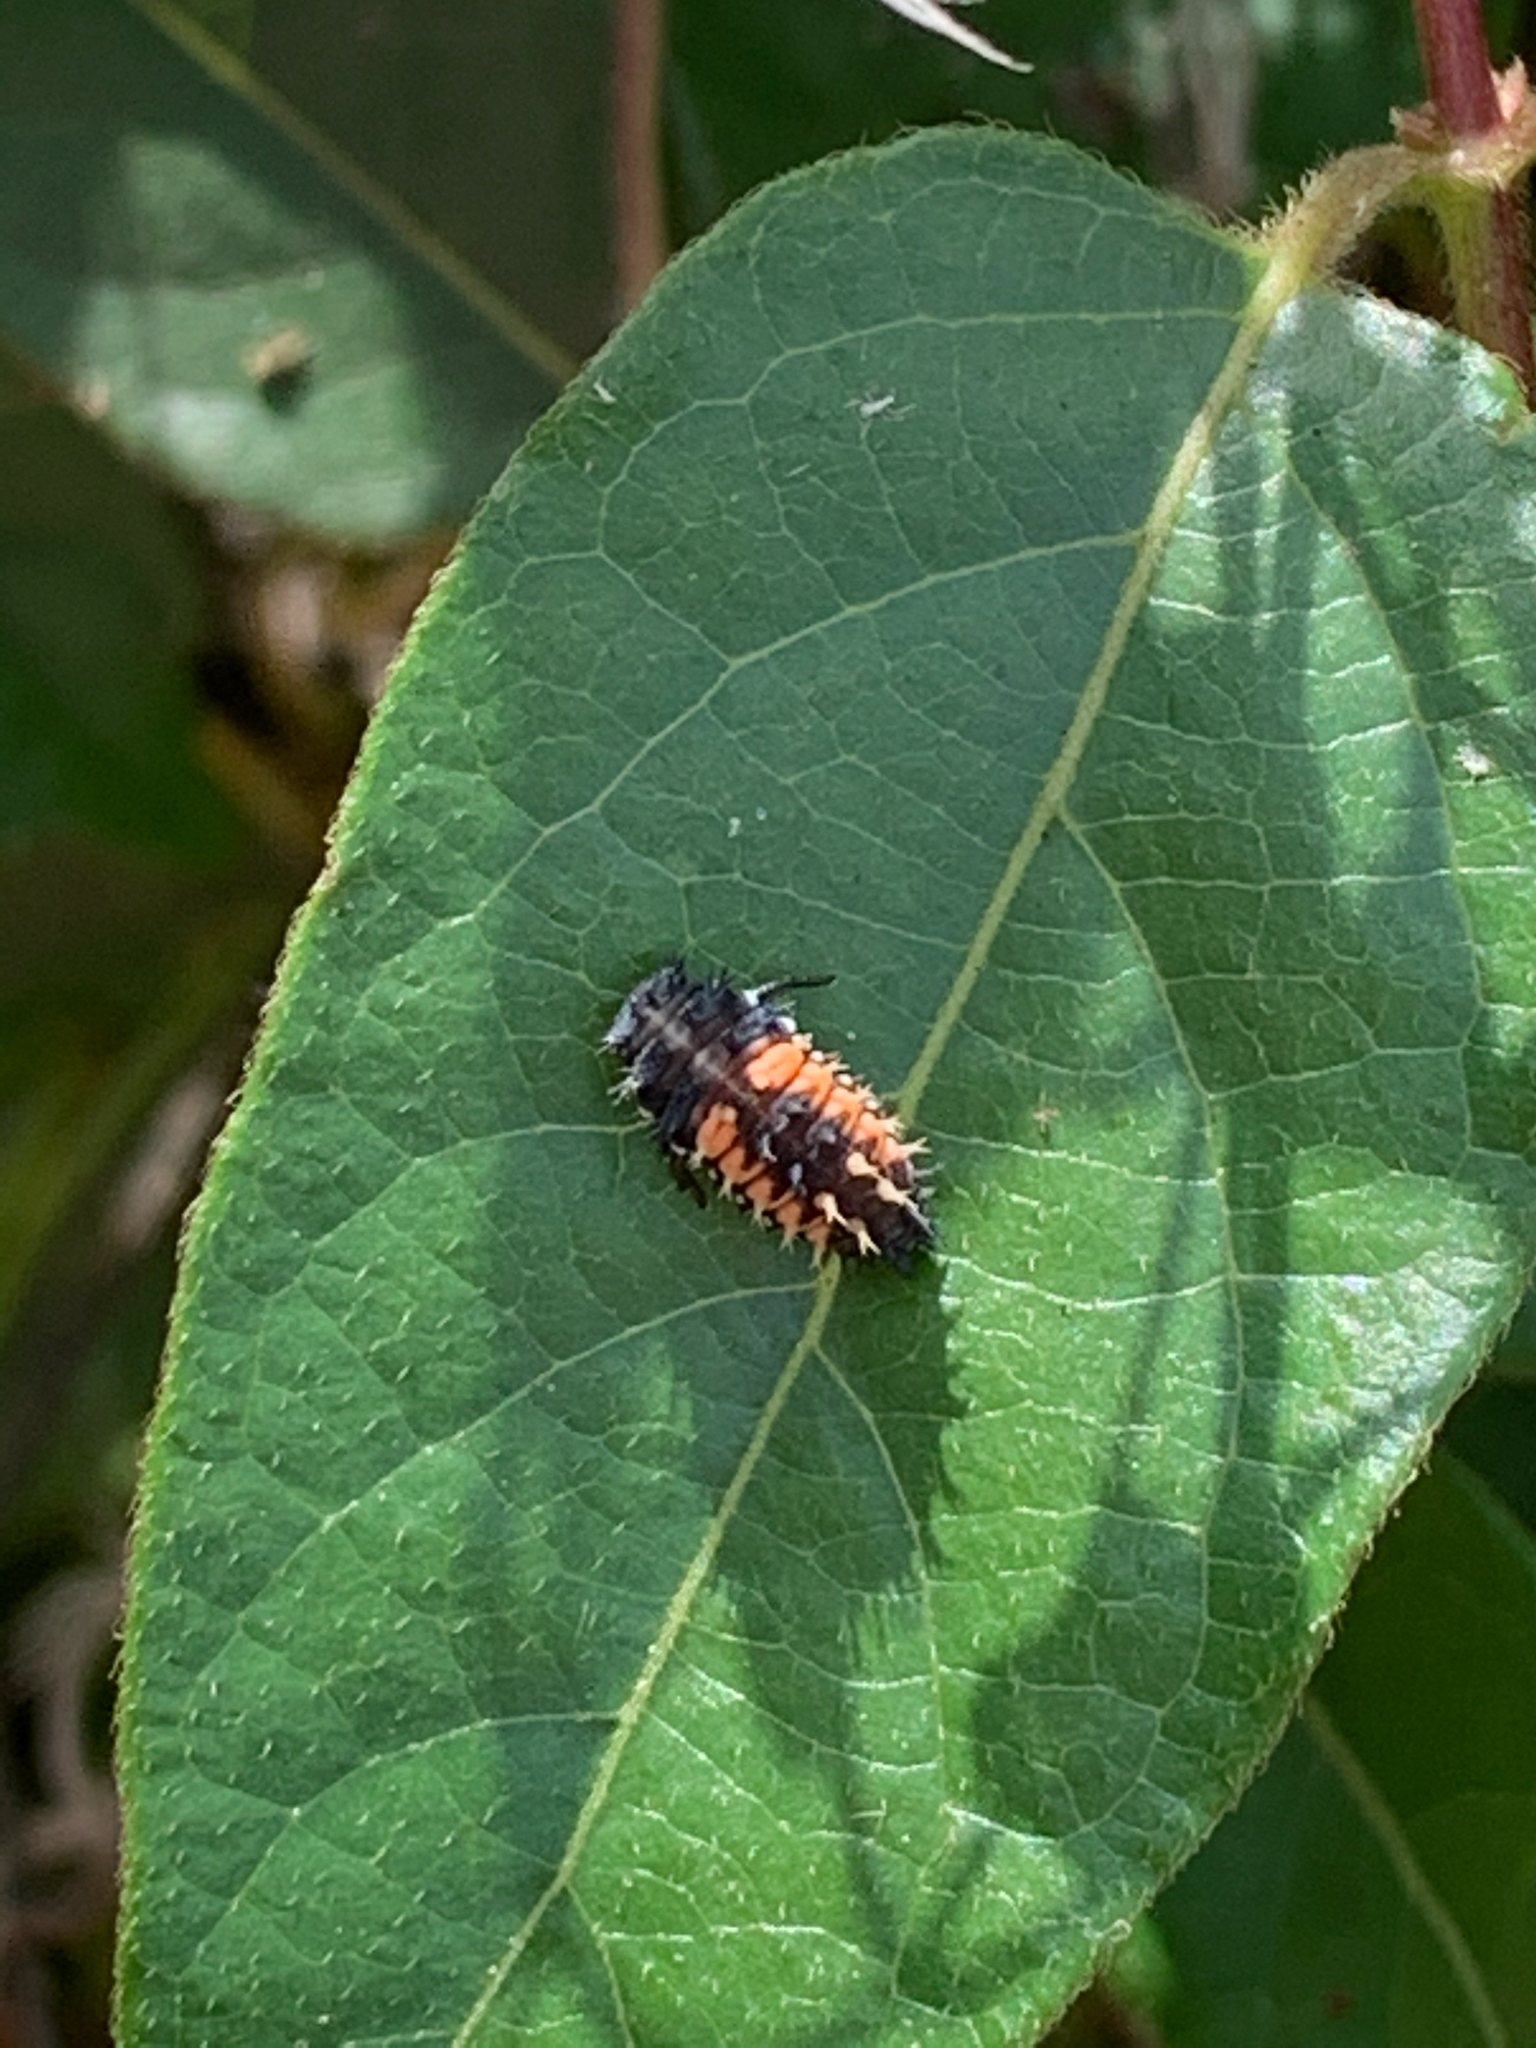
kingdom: Animalia
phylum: Arthropoda
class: Insecta
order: Coleoptera
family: Coccinellidae
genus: Harmonia
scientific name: Harmonia axyridis
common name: Harlequin ladybird
